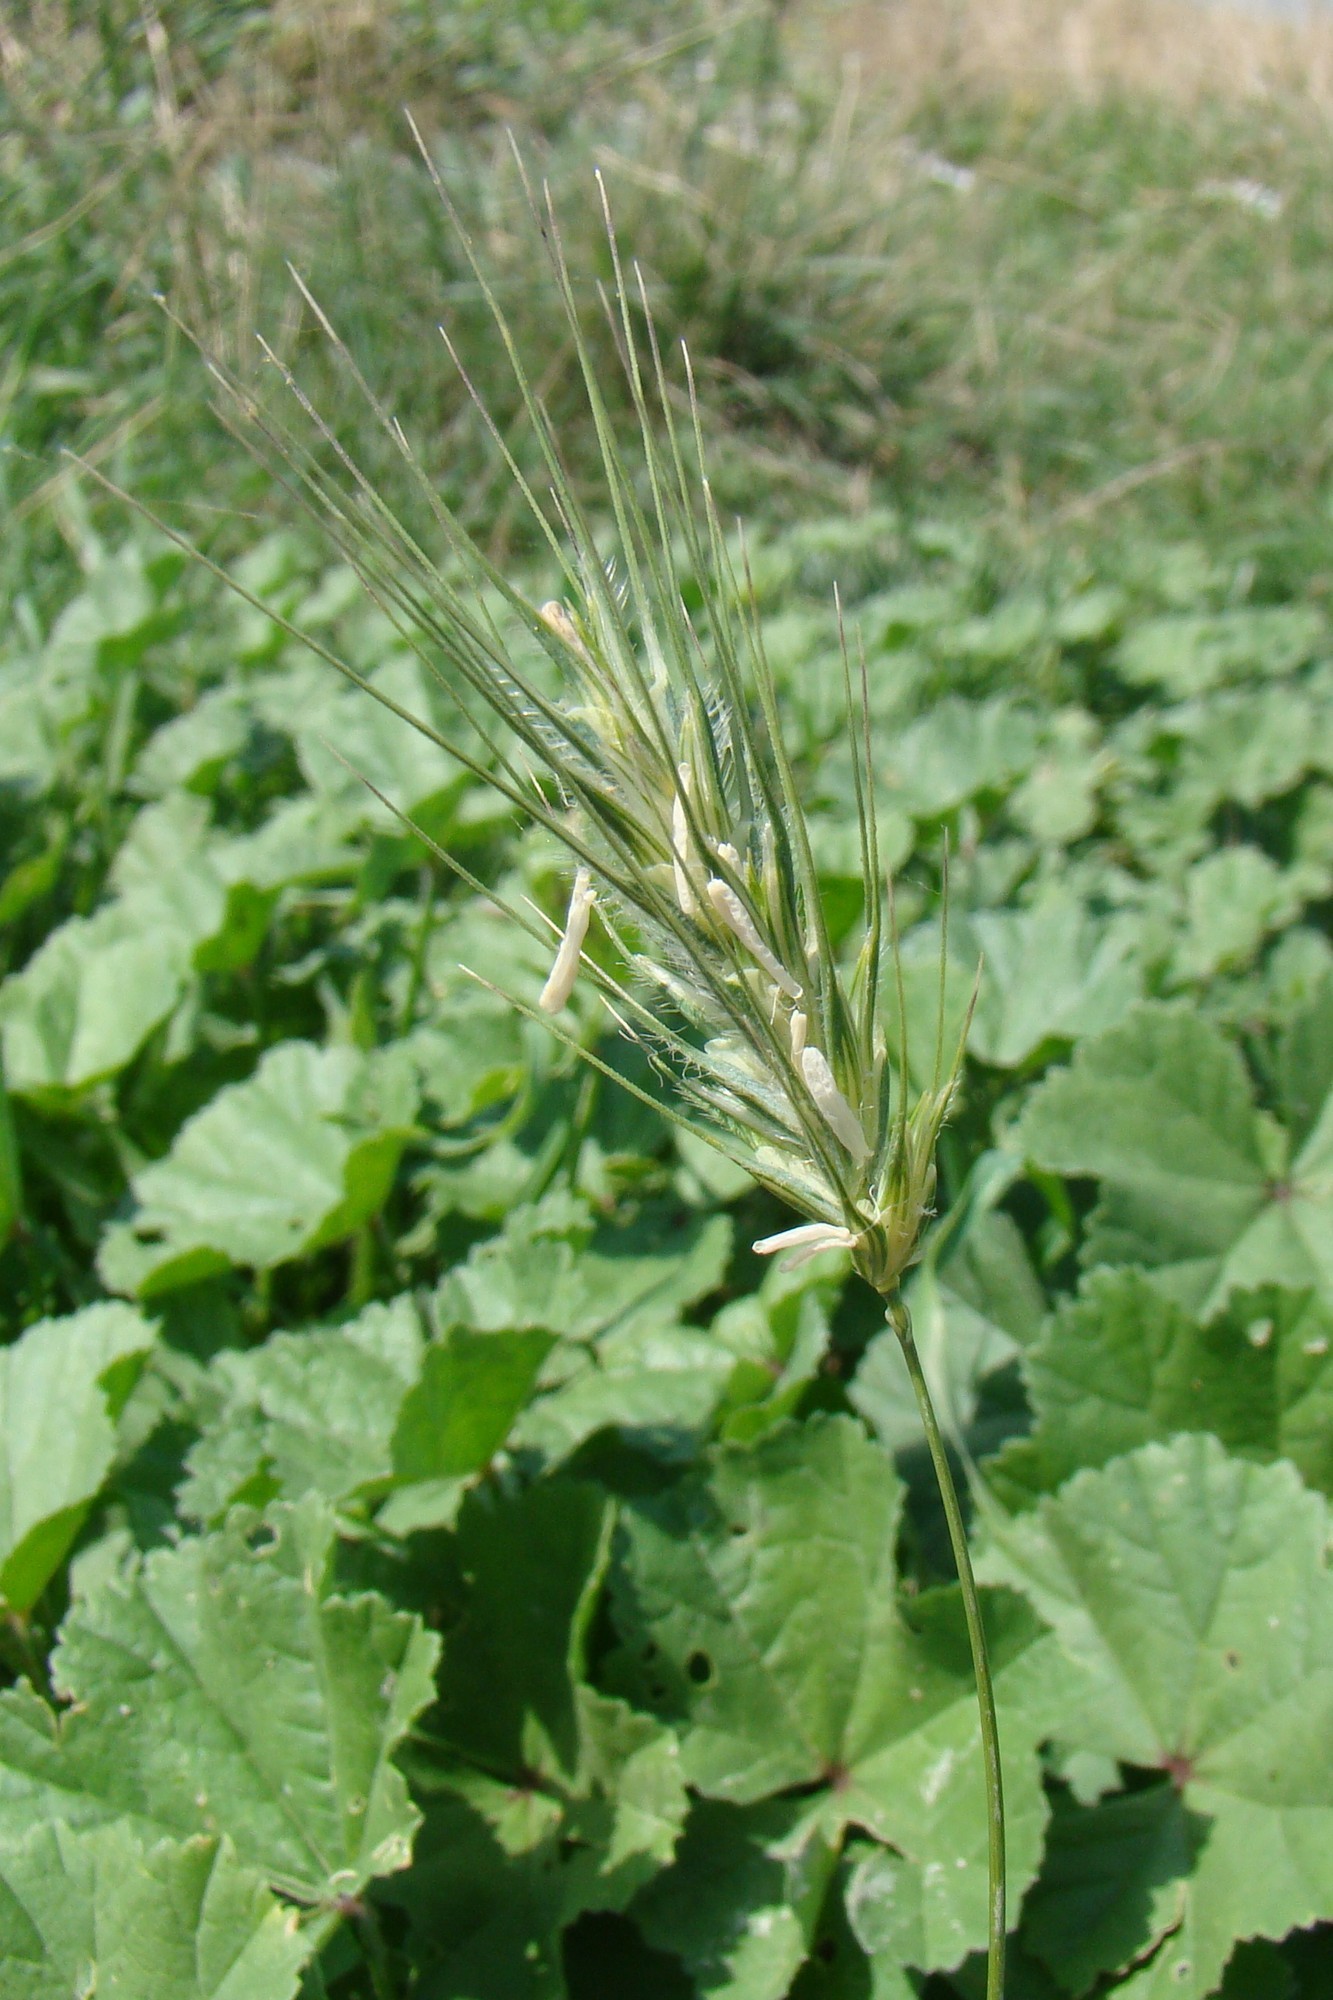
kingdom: Plantae
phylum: Tracheophyta
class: Liliopsida
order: Poales
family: Poaceae
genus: Dasypyrum
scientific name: Dasypyrum villosum
